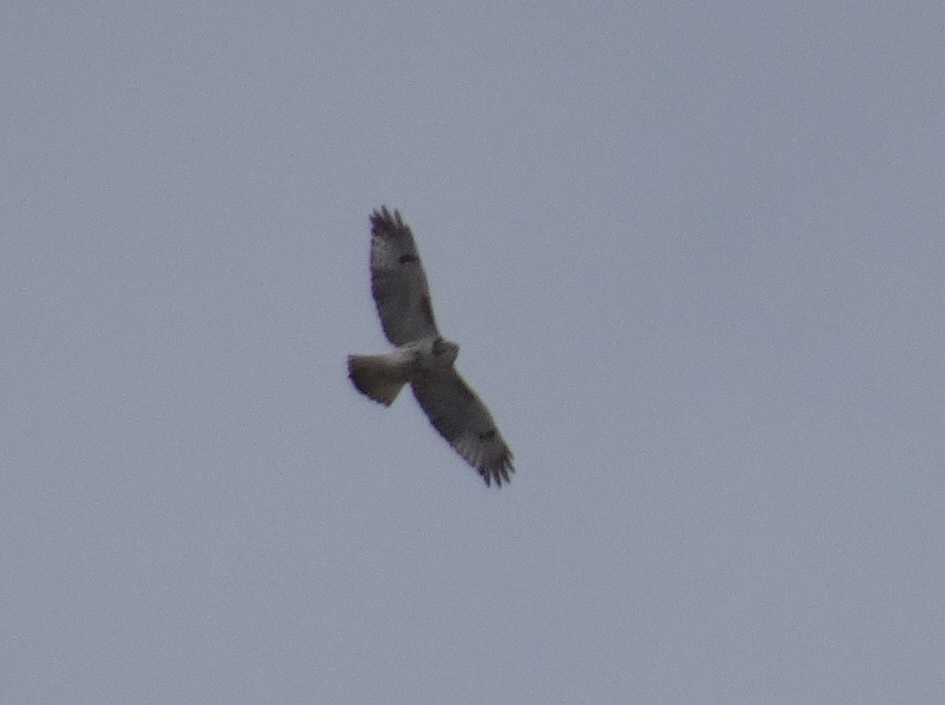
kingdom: Animalia
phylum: Chordata
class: Aves
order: Accipitriformes
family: Accipitridae
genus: Buteo
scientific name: Buteo jamaicensis
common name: Red-tailed hawk
